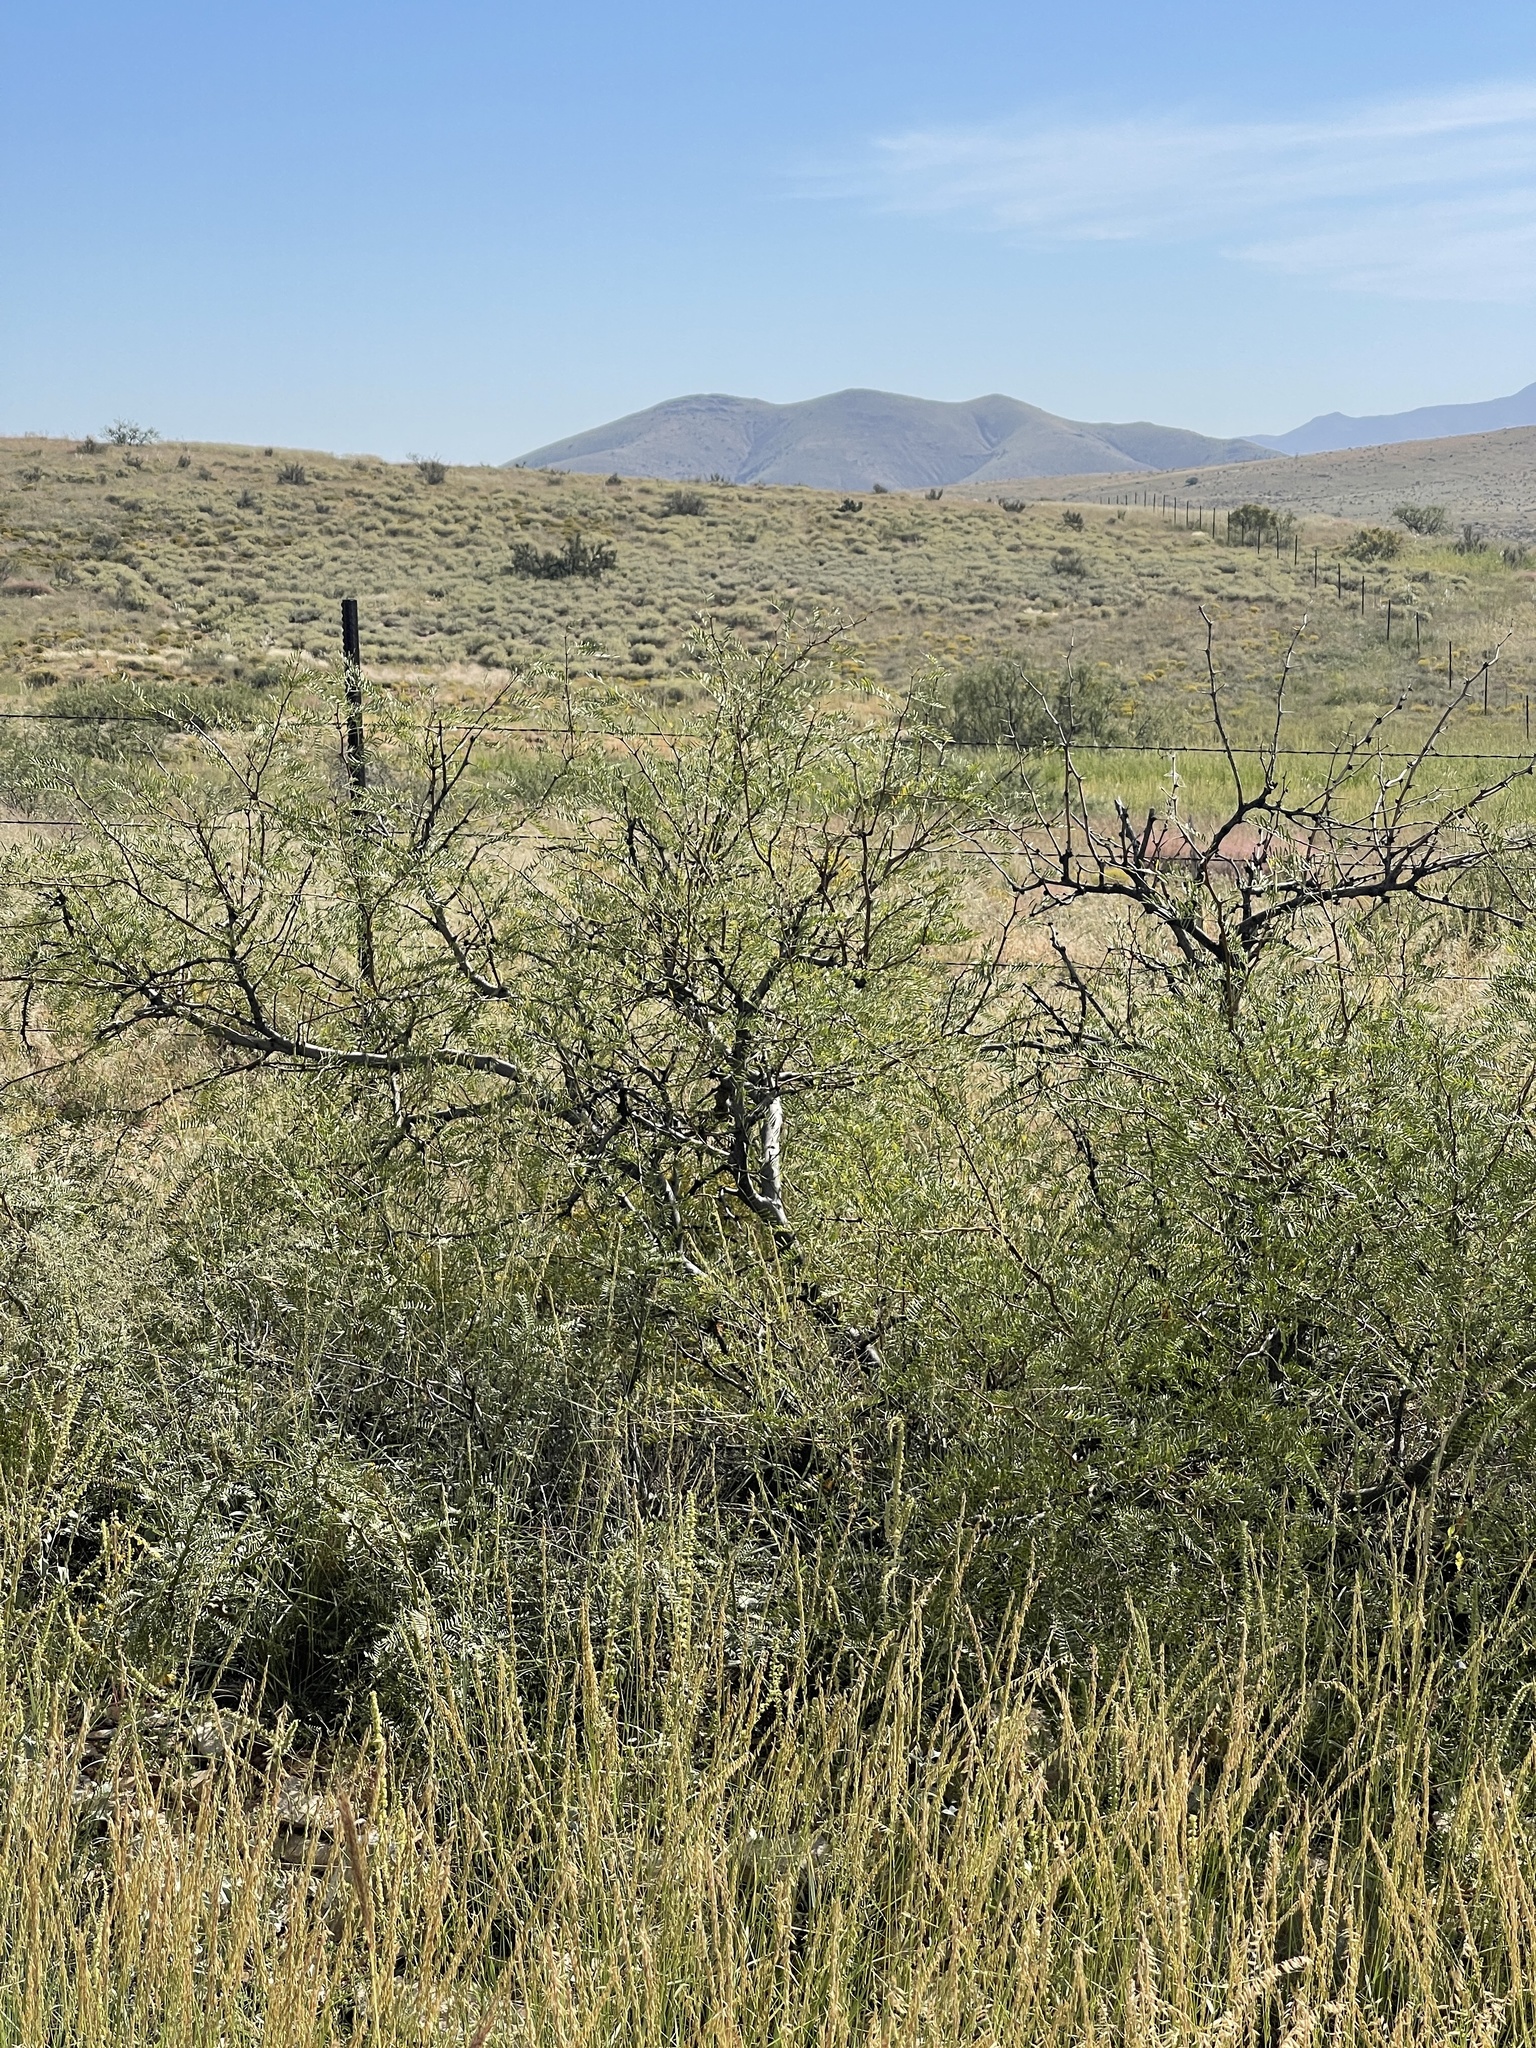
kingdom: Plantae
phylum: Tracheophyta
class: Magnoliopsida
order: Fabales
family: Fabaceae
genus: Prosopis
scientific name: Prosopis glandulosa
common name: Honey mesquite
